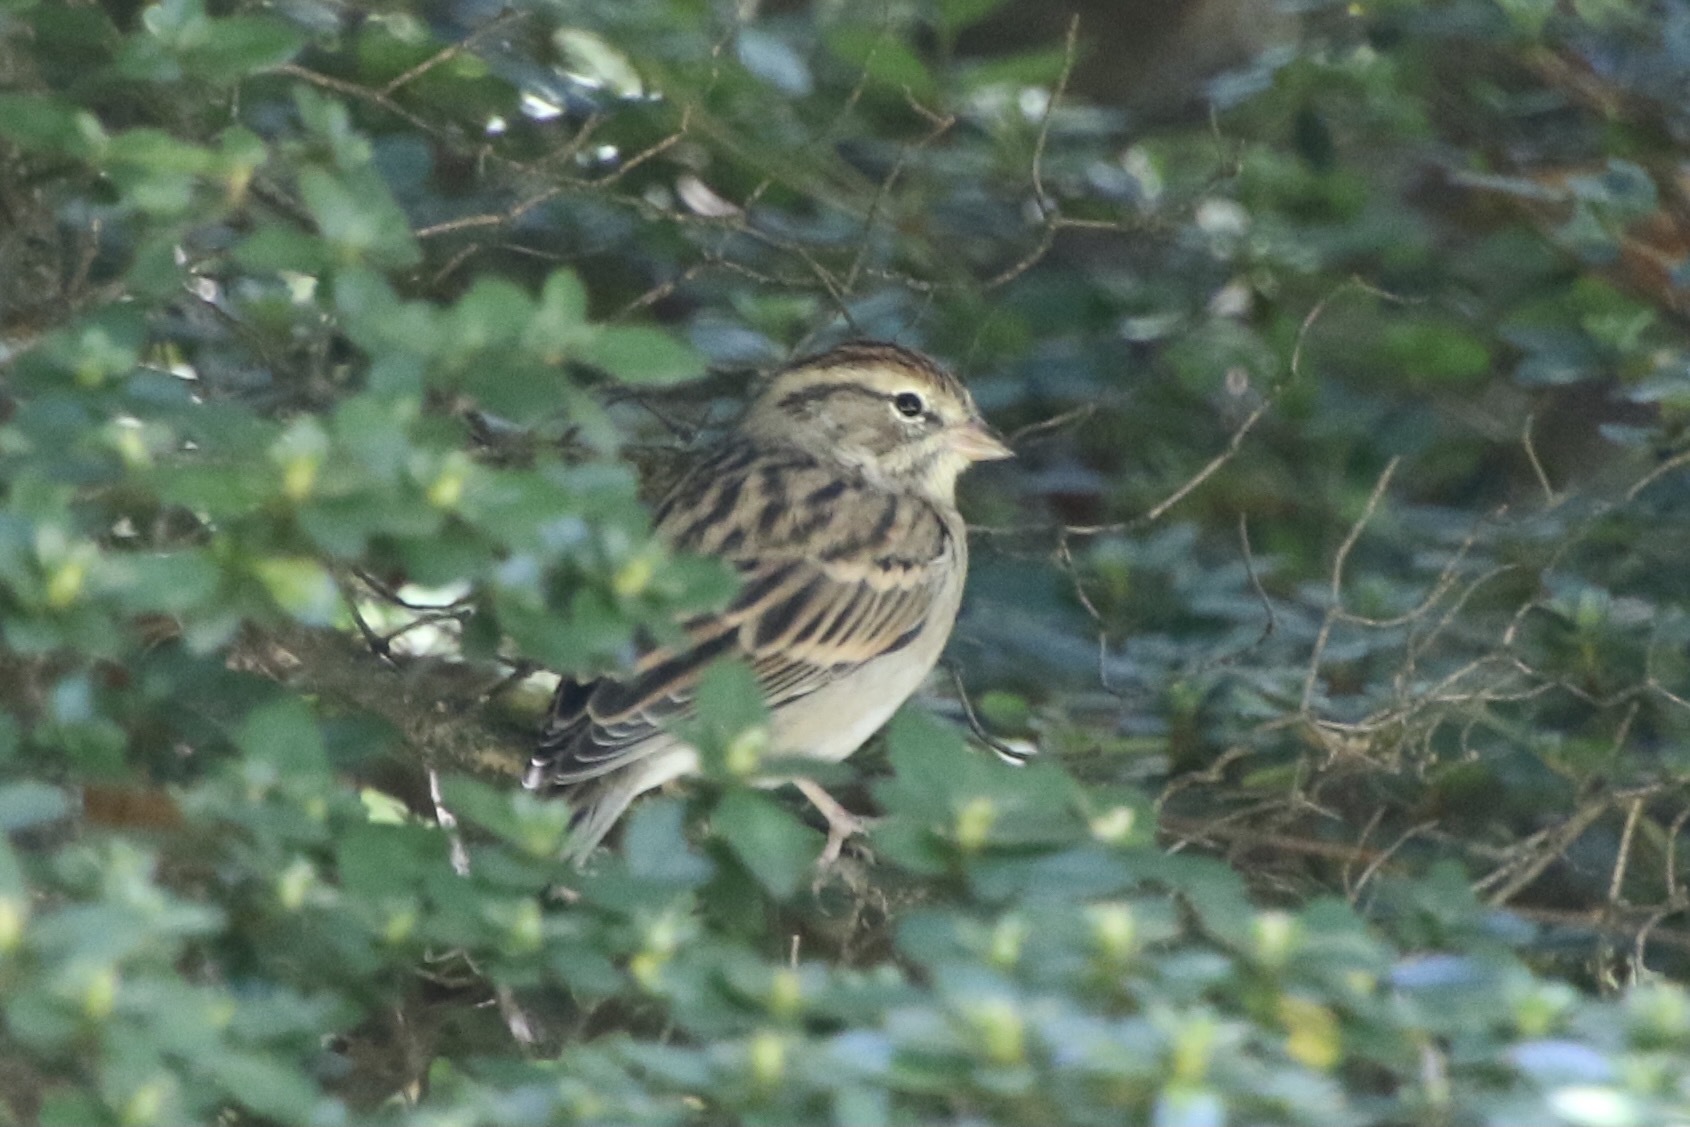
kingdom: Animalia
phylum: Chordata
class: Aves
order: Passeriformes
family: Passerellidae
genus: Spizella
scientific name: Spizella passerina
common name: Chipping sparrow
